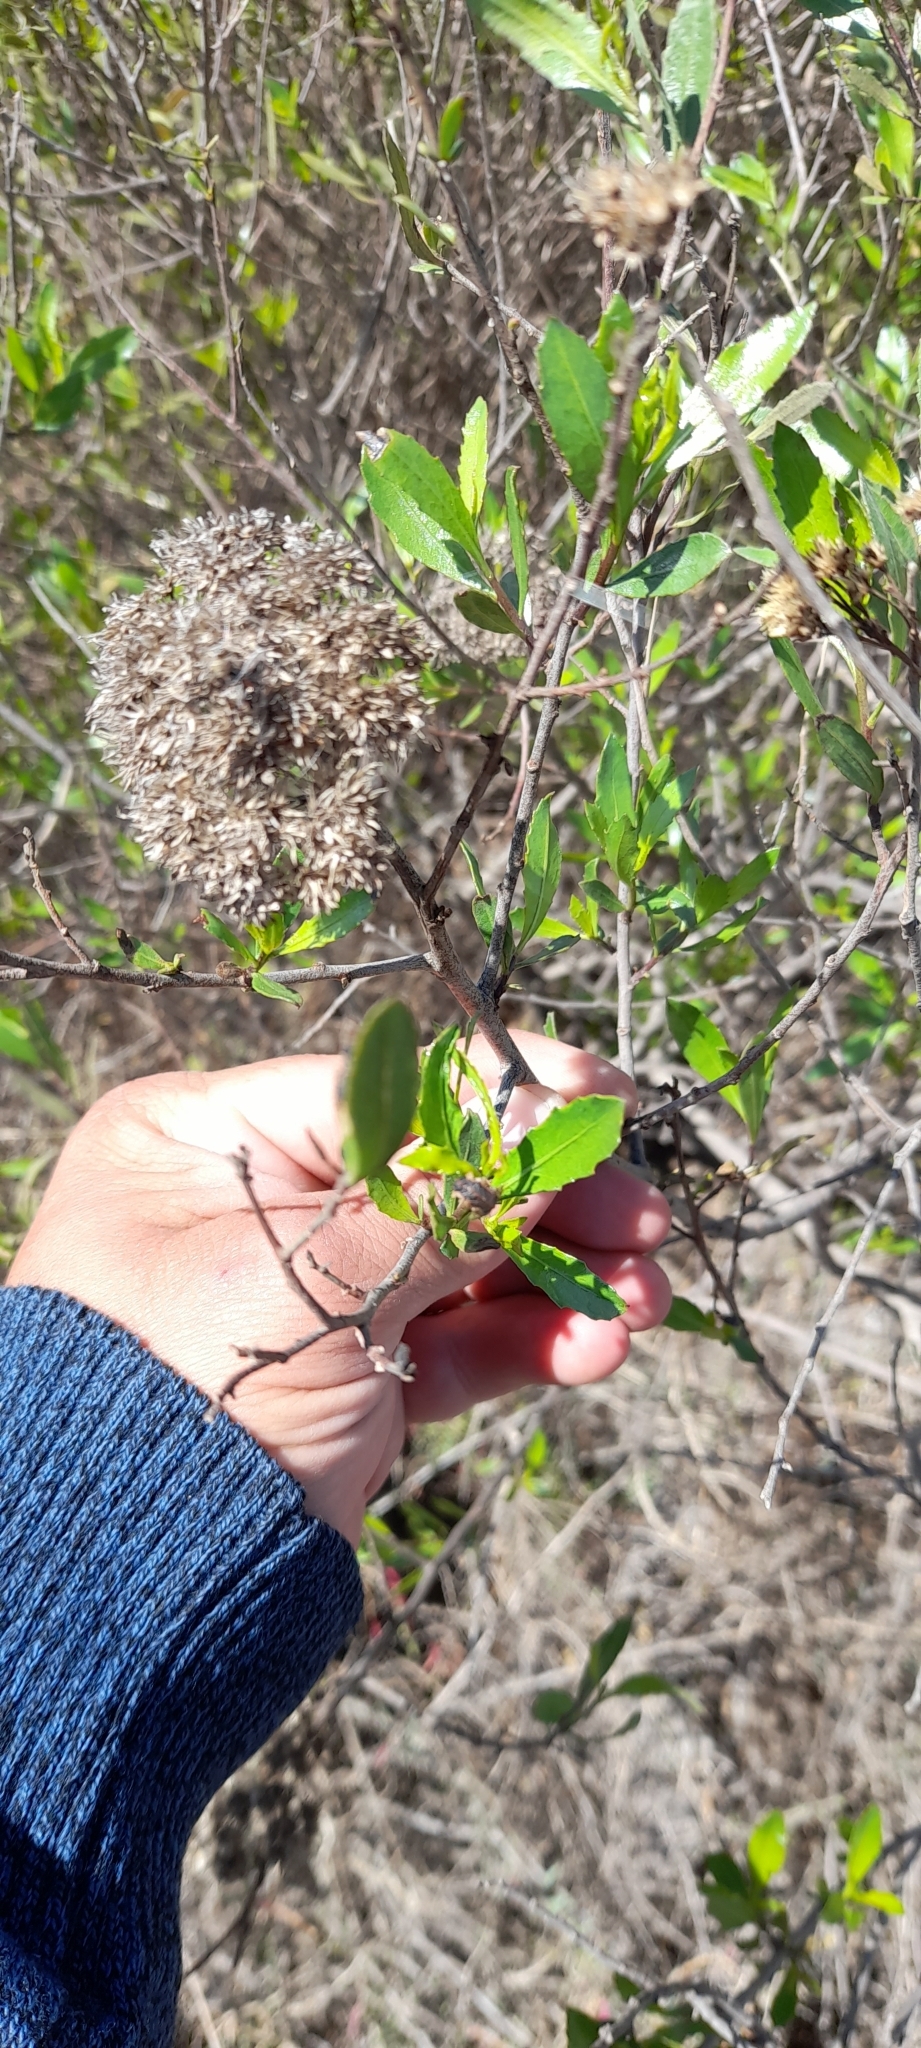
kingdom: Plantae
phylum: Tracheophyta
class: Magnoliopsida
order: Asterales
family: Asteraceae
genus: Tessaria
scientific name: Tessaria dodonaeifolia
